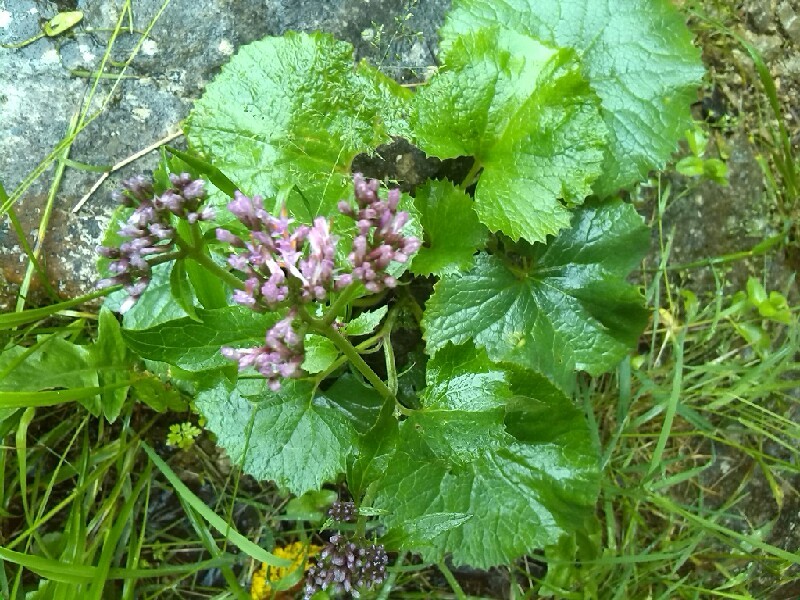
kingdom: Plantae
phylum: Tracheophyta
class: Magnoliopsida
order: Asterales
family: Asteraceae
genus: Adenostyles
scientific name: Adenostyles alliariae
